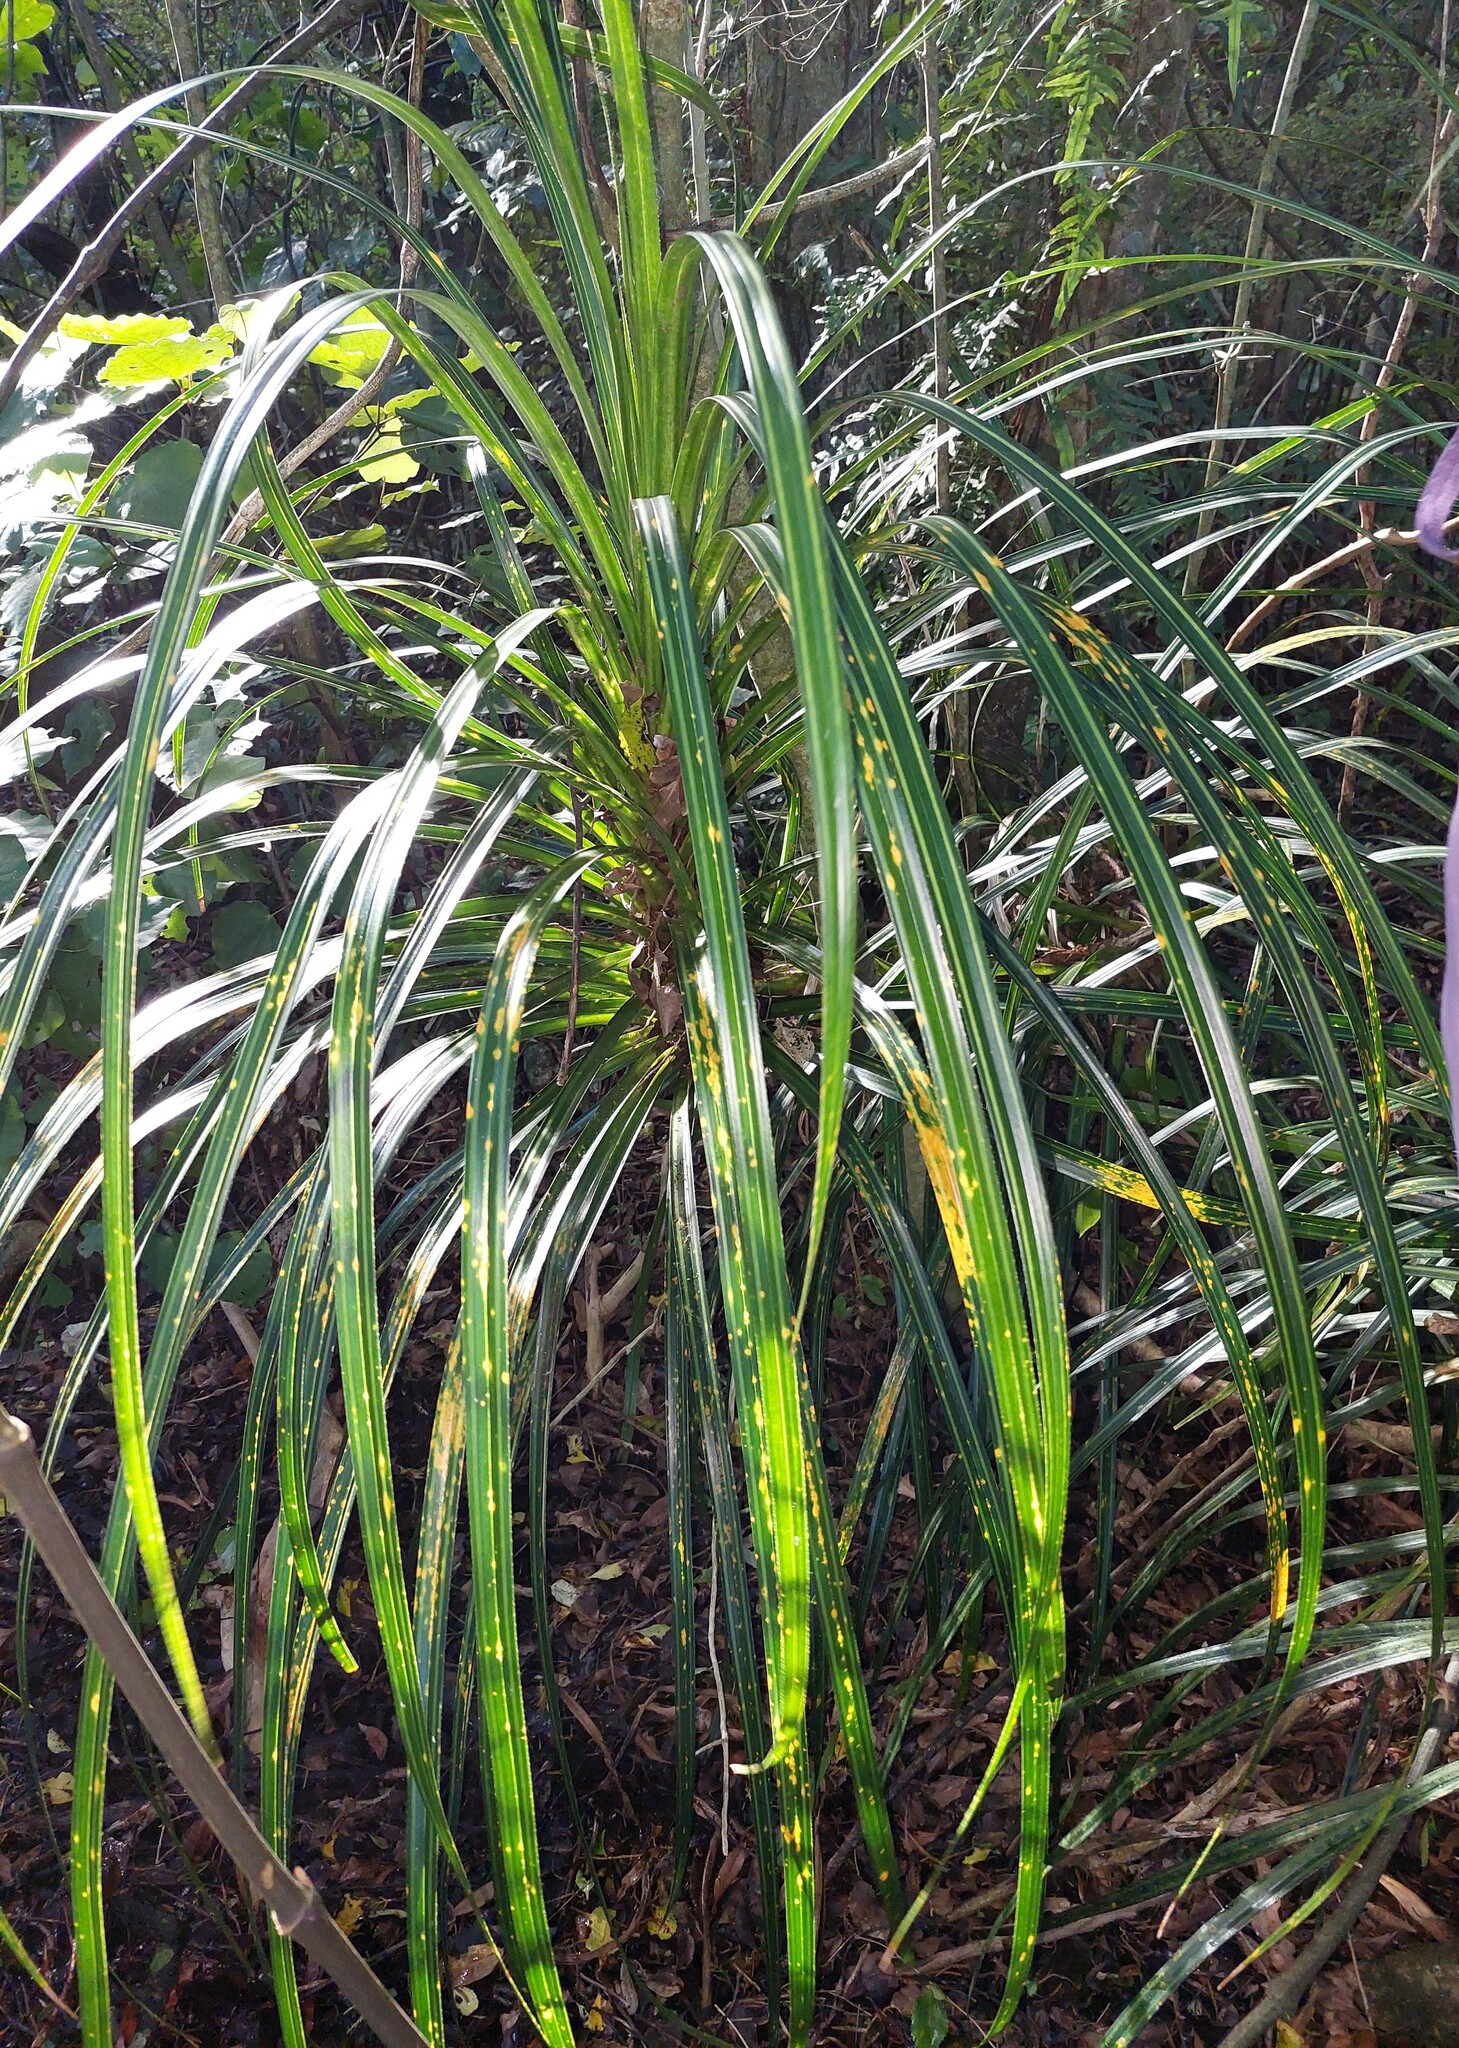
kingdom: Plantae
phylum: Tracheophyta
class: Liliopsida
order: Pandanales
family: Pandanaceae
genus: Freycinetia
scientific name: Freycinetia banksii
